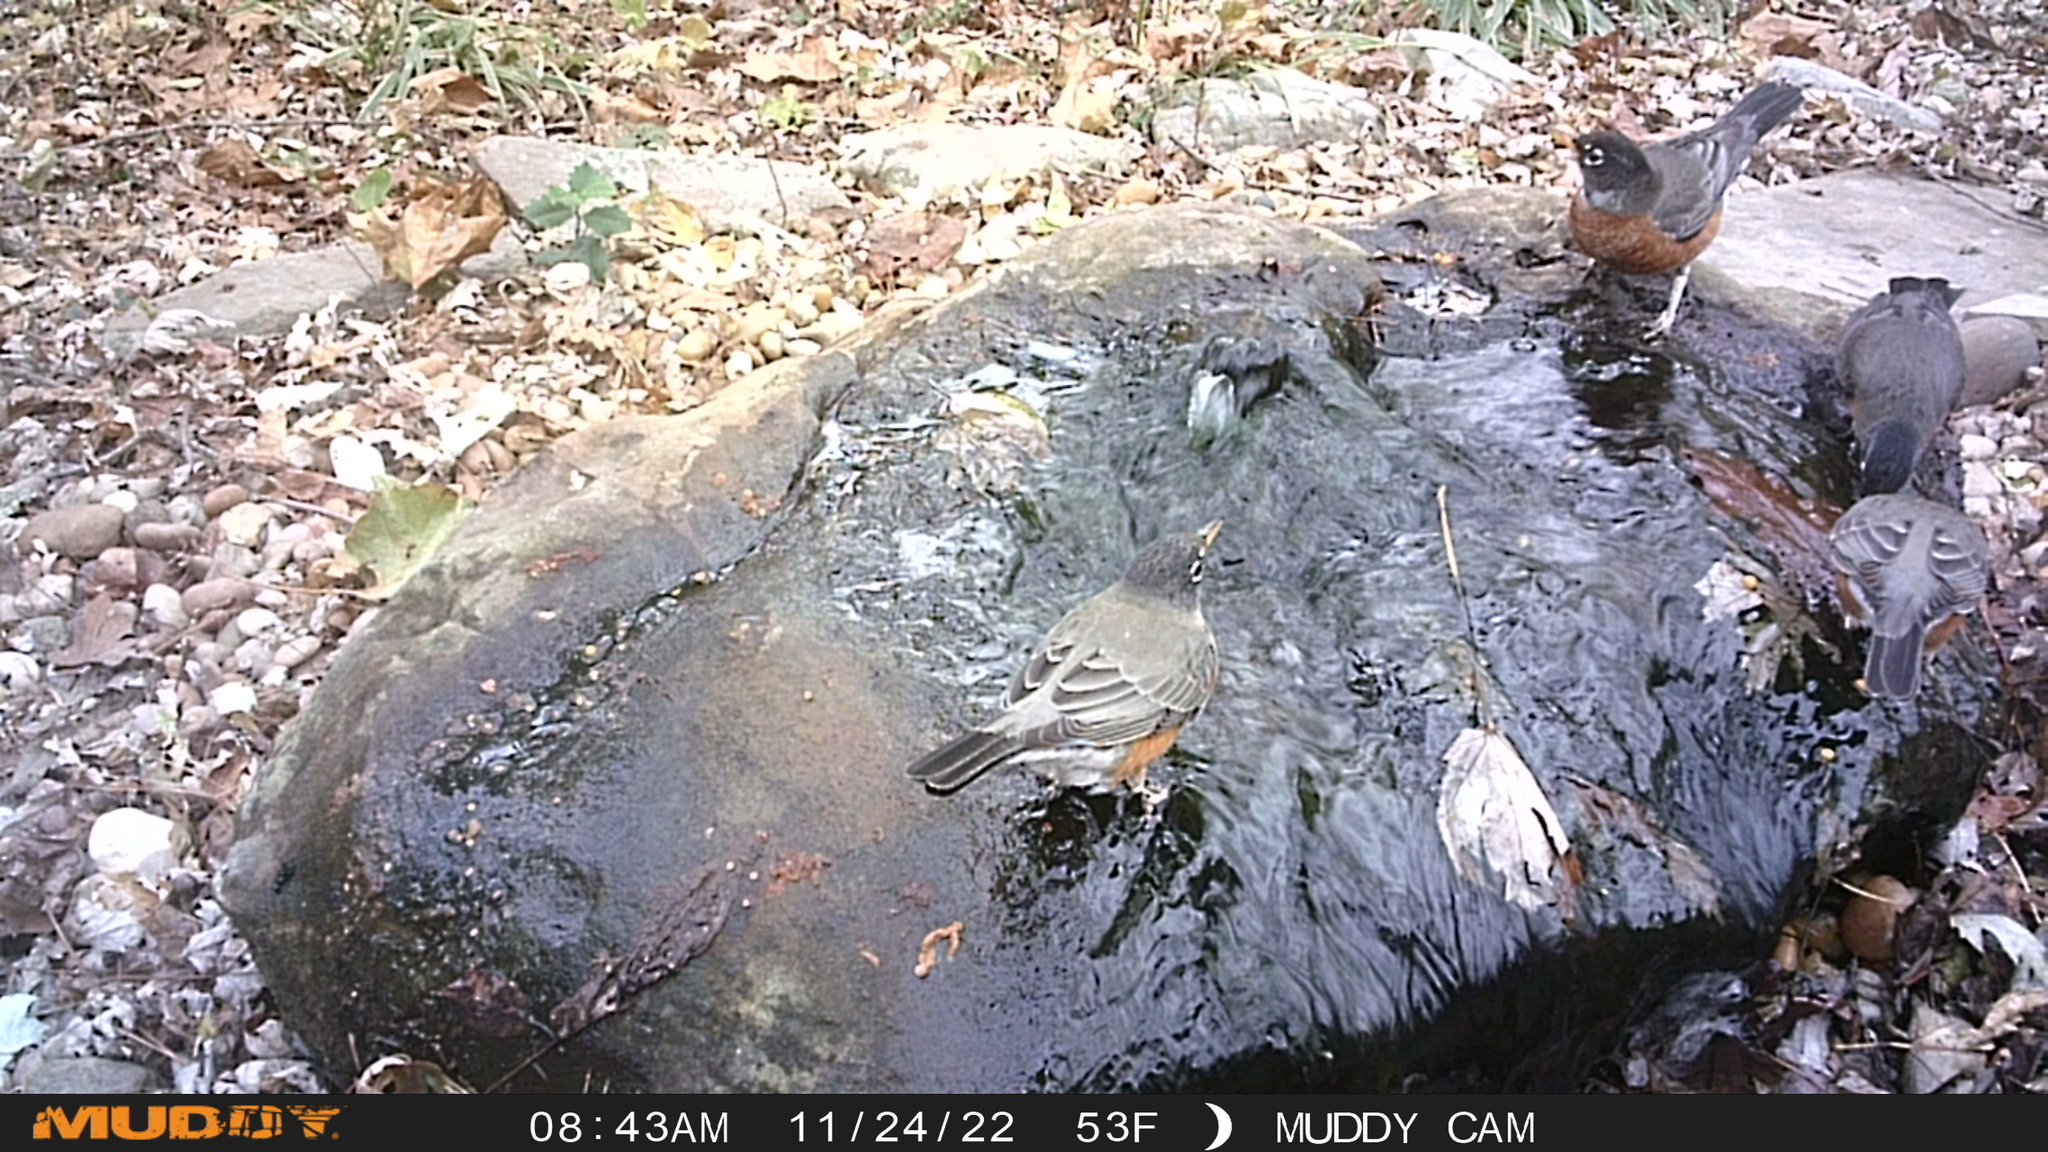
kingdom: Animalia
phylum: Chordata
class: Aves
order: Passeriformes
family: Turdidae
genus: Turdus
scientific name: Turdus migratorius
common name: American robin
